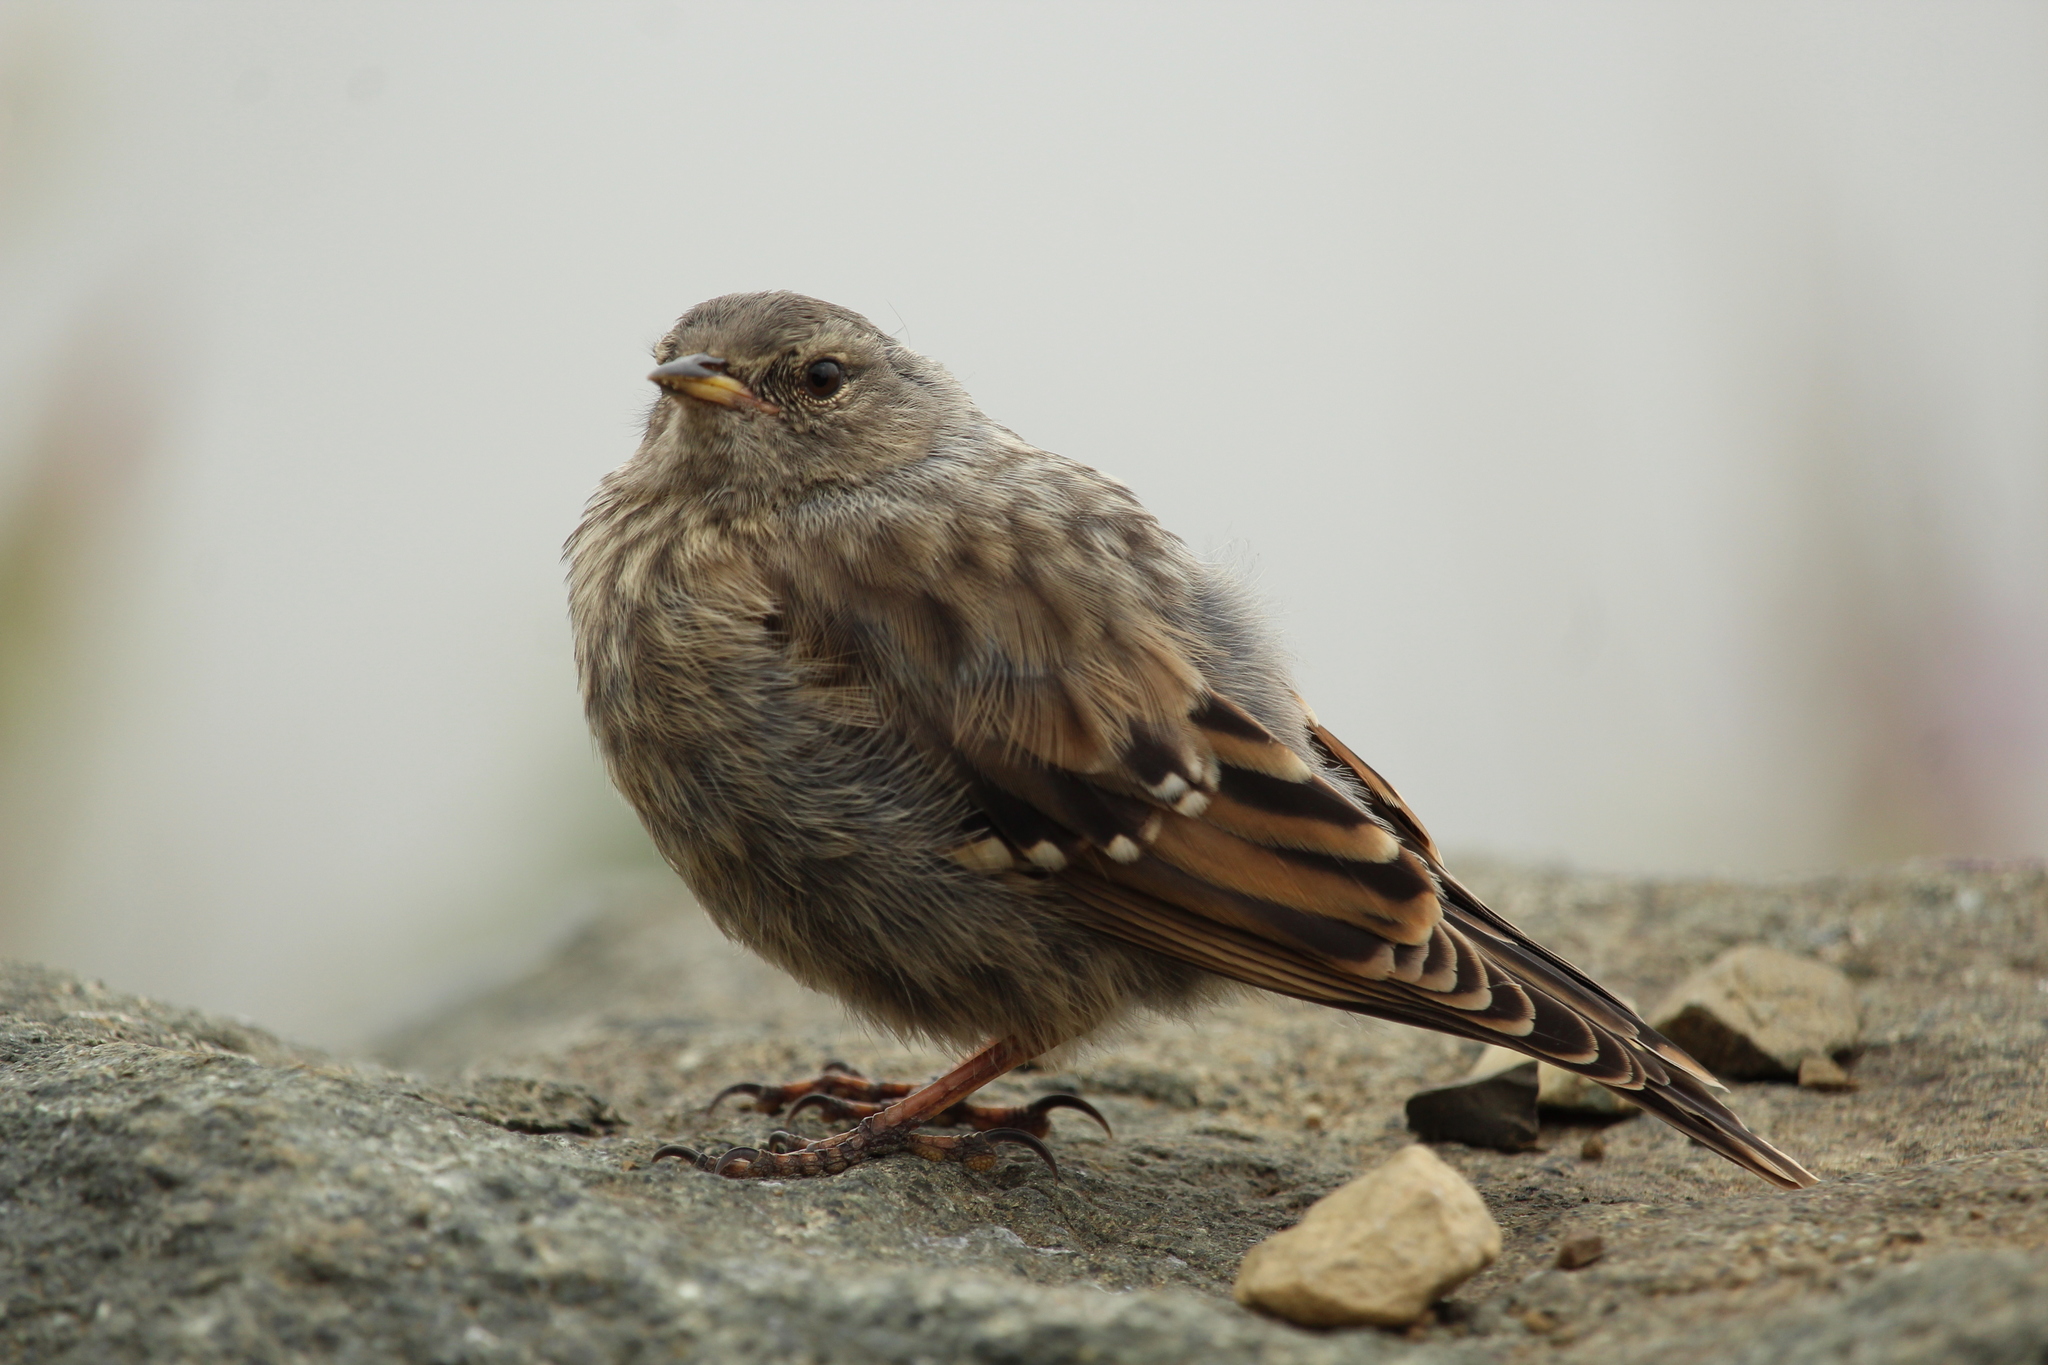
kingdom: Animalia
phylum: Chordata
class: Aves
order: Passeriformes
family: Prunellidae
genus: Prunella
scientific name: Prunella collaris
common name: Alpine accentor
